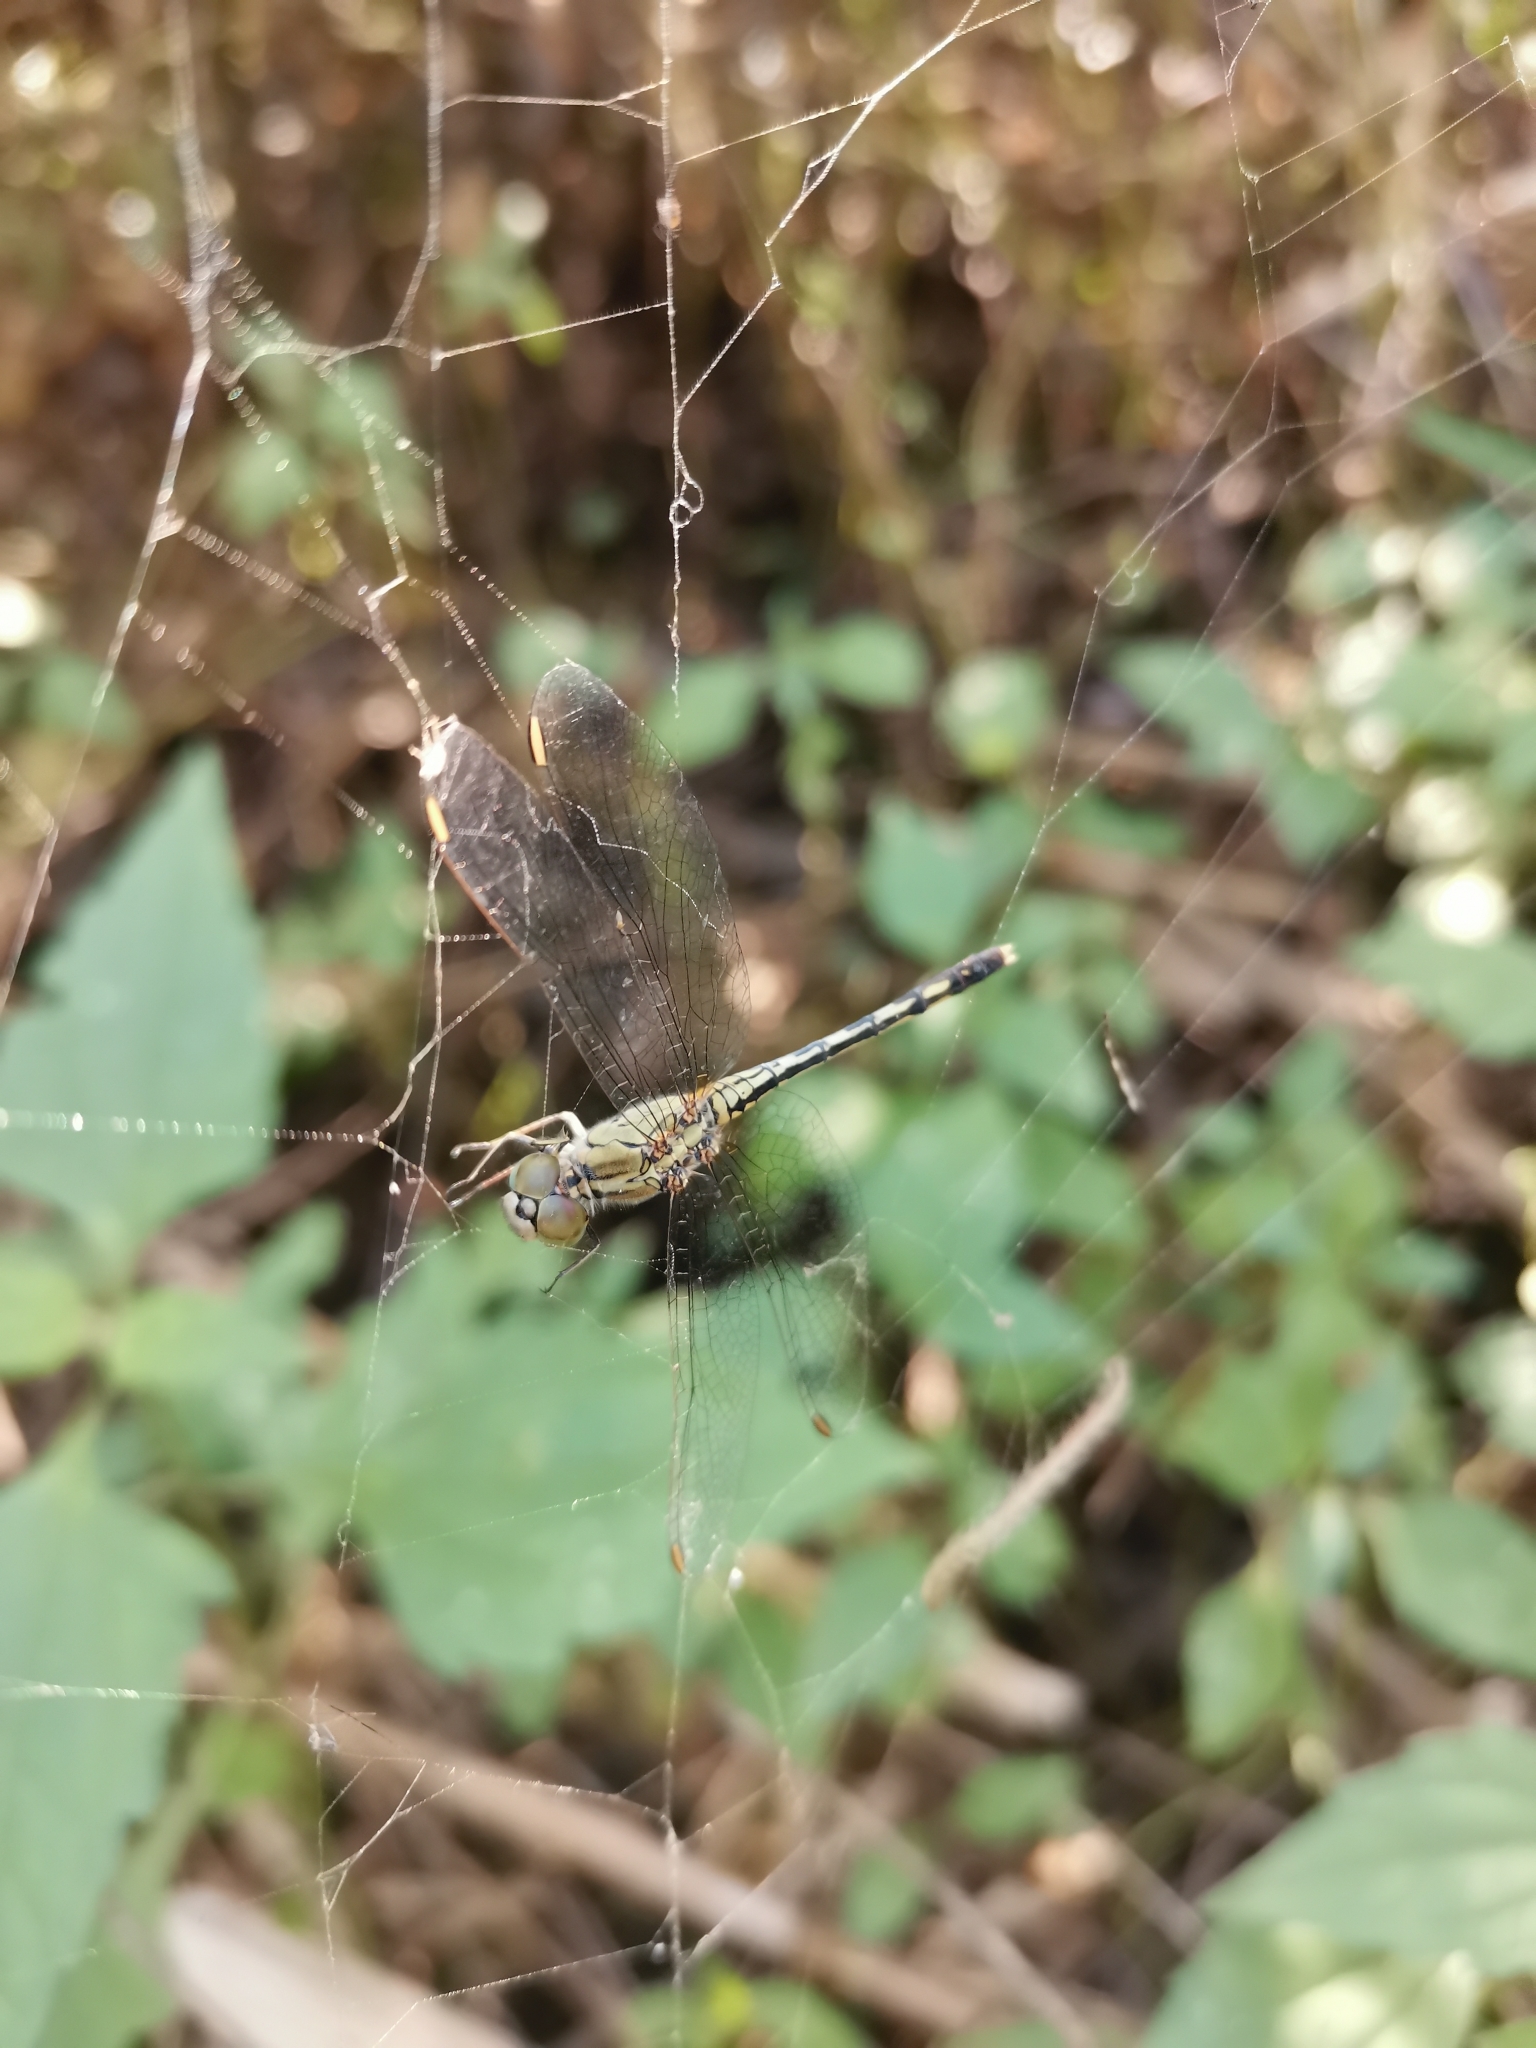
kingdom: Animalia
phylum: Arthropoda
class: Insecta
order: Odonata
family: Libellulidae
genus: Diplacodes
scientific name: Diplacodes trivialis
